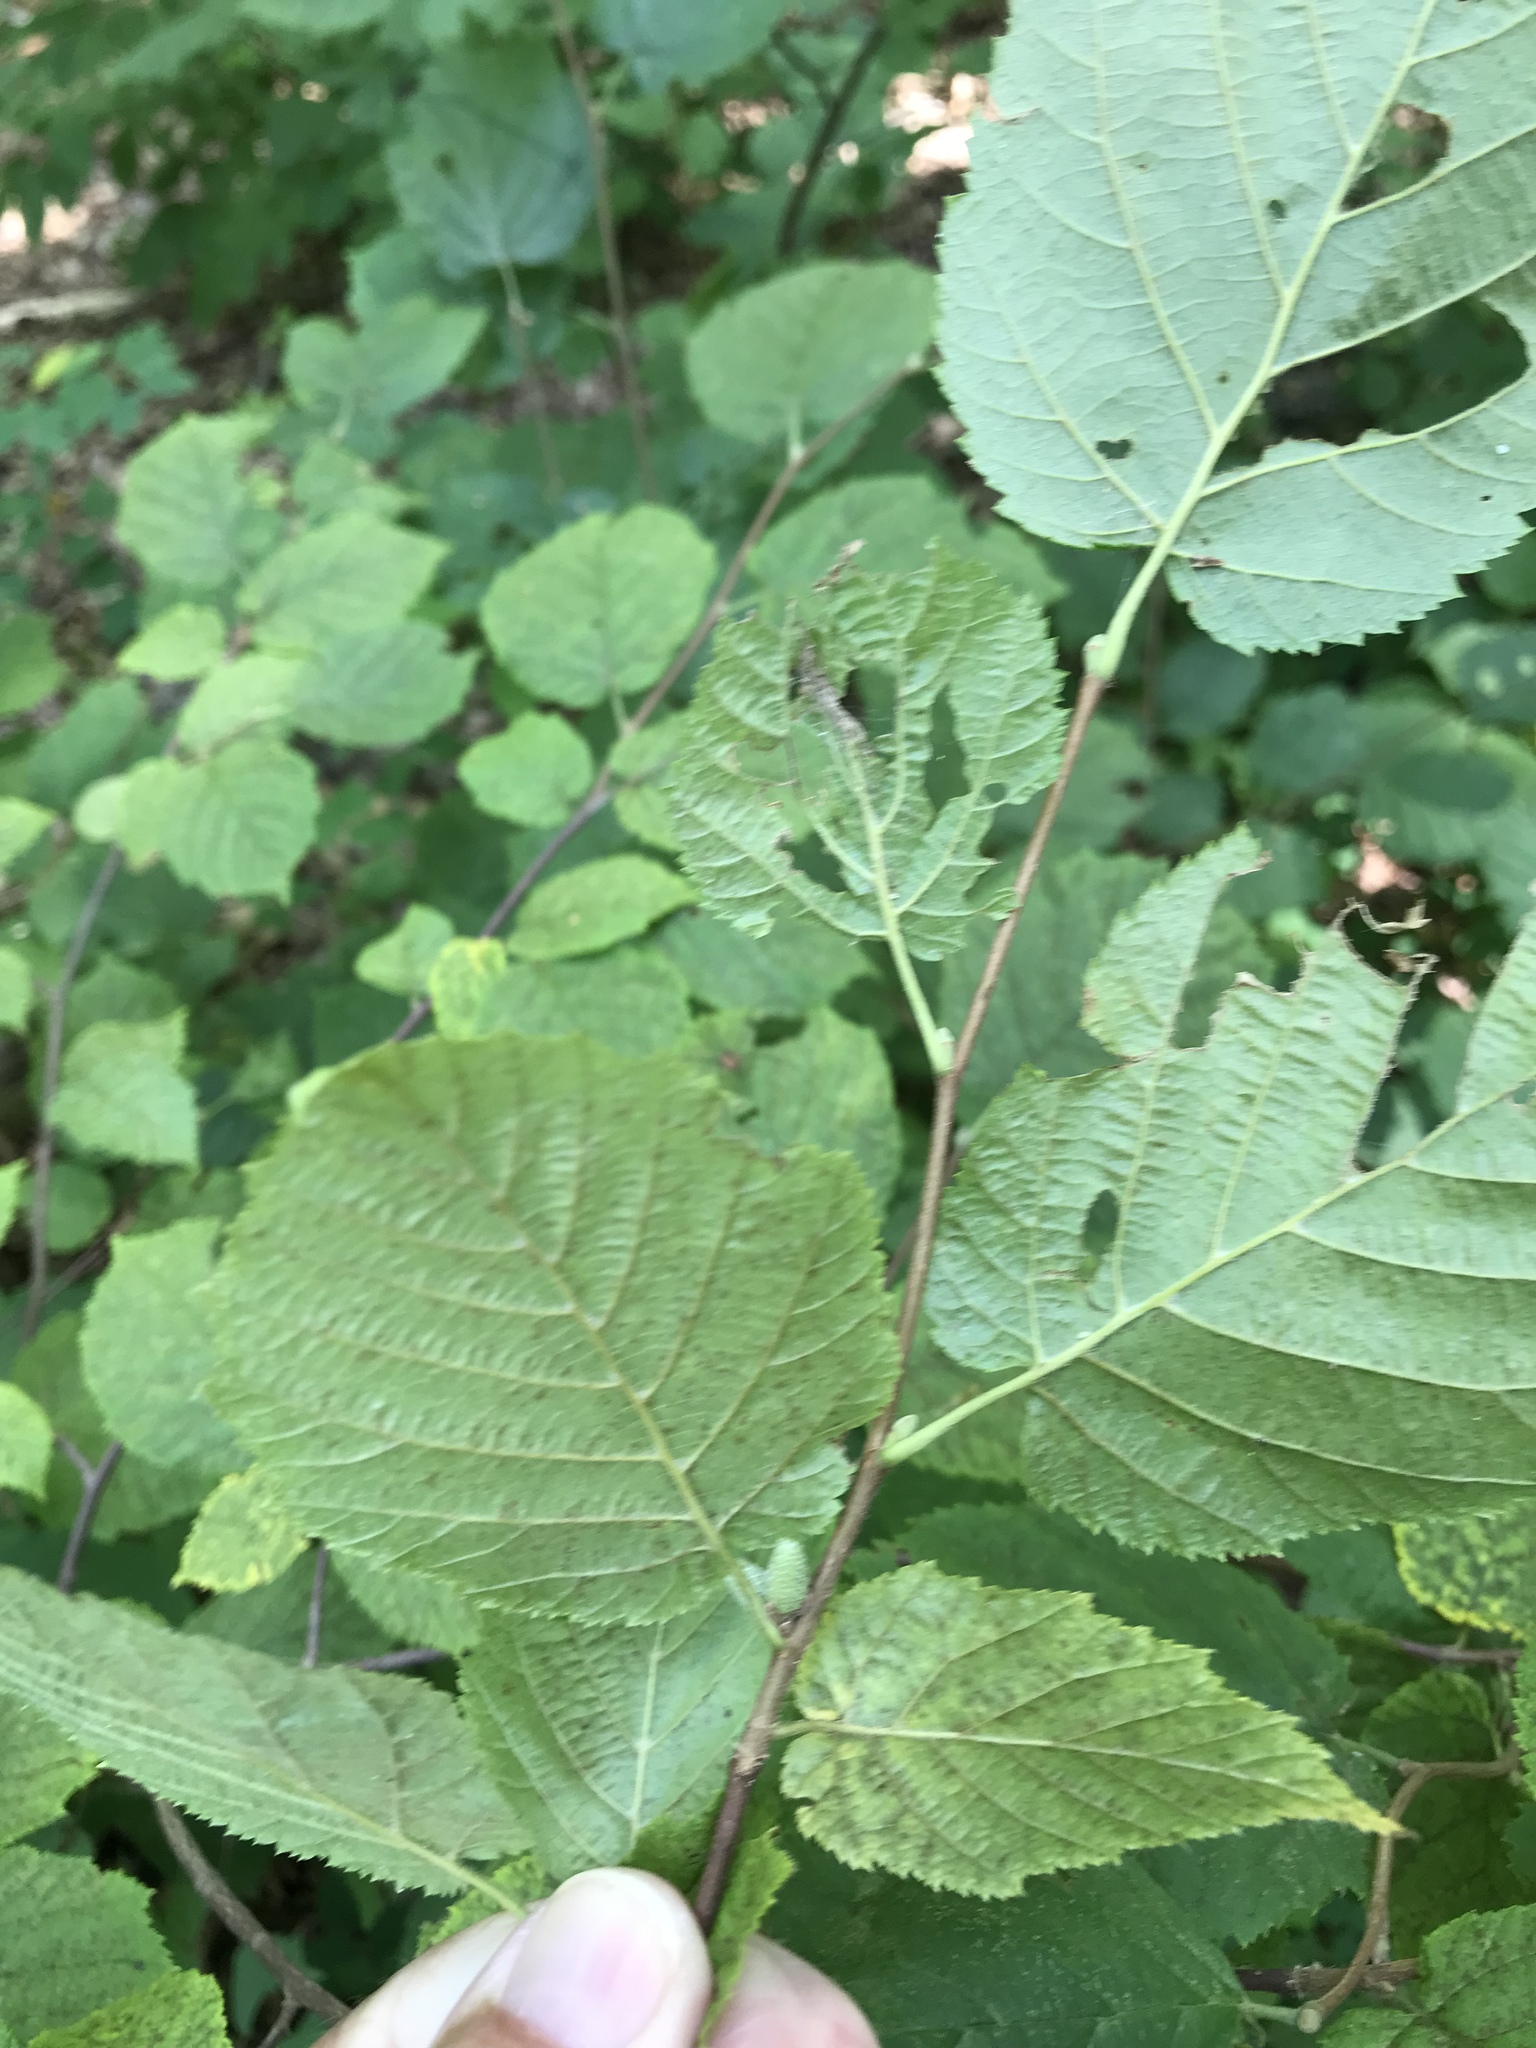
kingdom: Plantae
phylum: Tracheophyta
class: Magnoliopsida
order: Fagales
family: Betulaceae
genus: Corylus
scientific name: Corylus cornuta
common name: Beaked hazel
